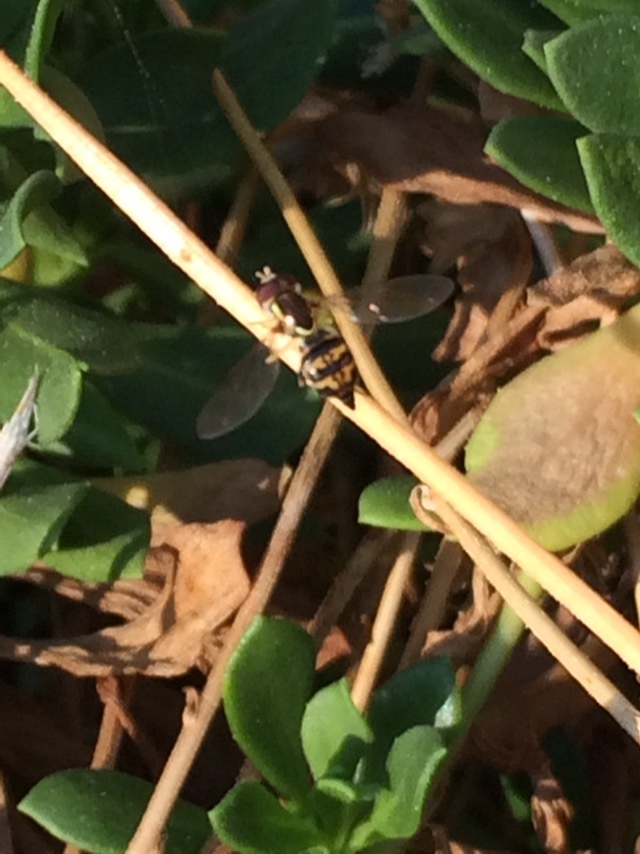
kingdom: Animalia
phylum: Arthropoda
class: Insecta
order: Diptera
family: Syrphidae
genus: Toxomerus
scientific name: Toxomerus occidentalis
